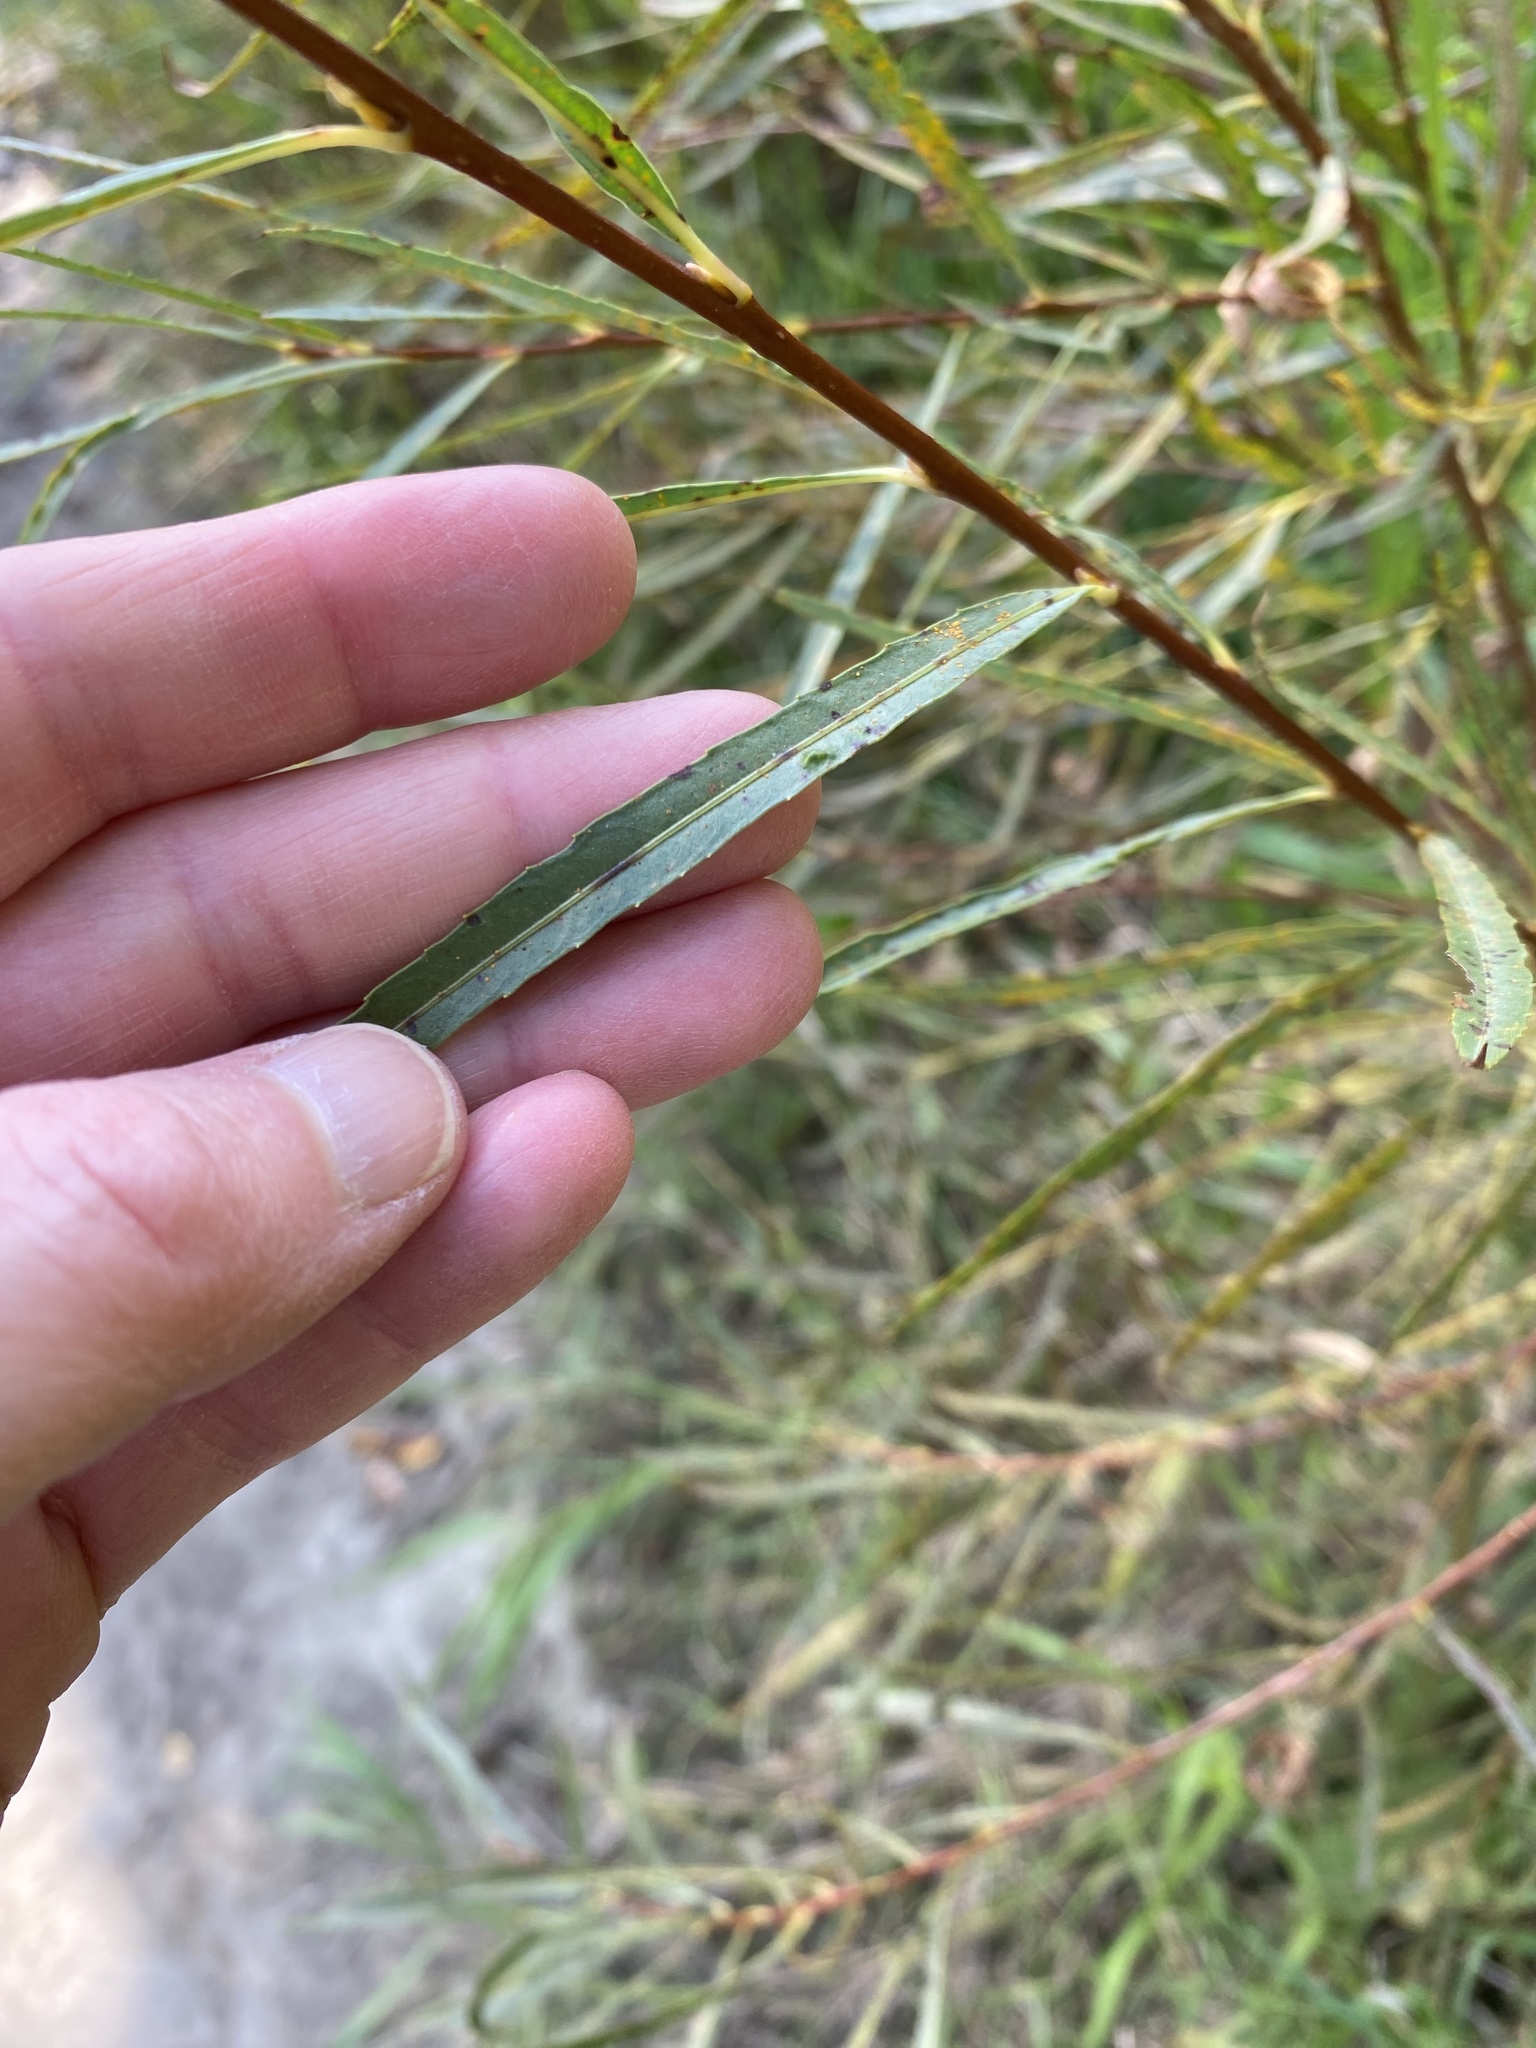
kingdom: Plantae
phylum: Tracheophyta
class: Magnoliopsida
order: Malpighiales
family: Salicaceae
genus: Salix
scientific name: Salix interior
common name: Sandbar willow
